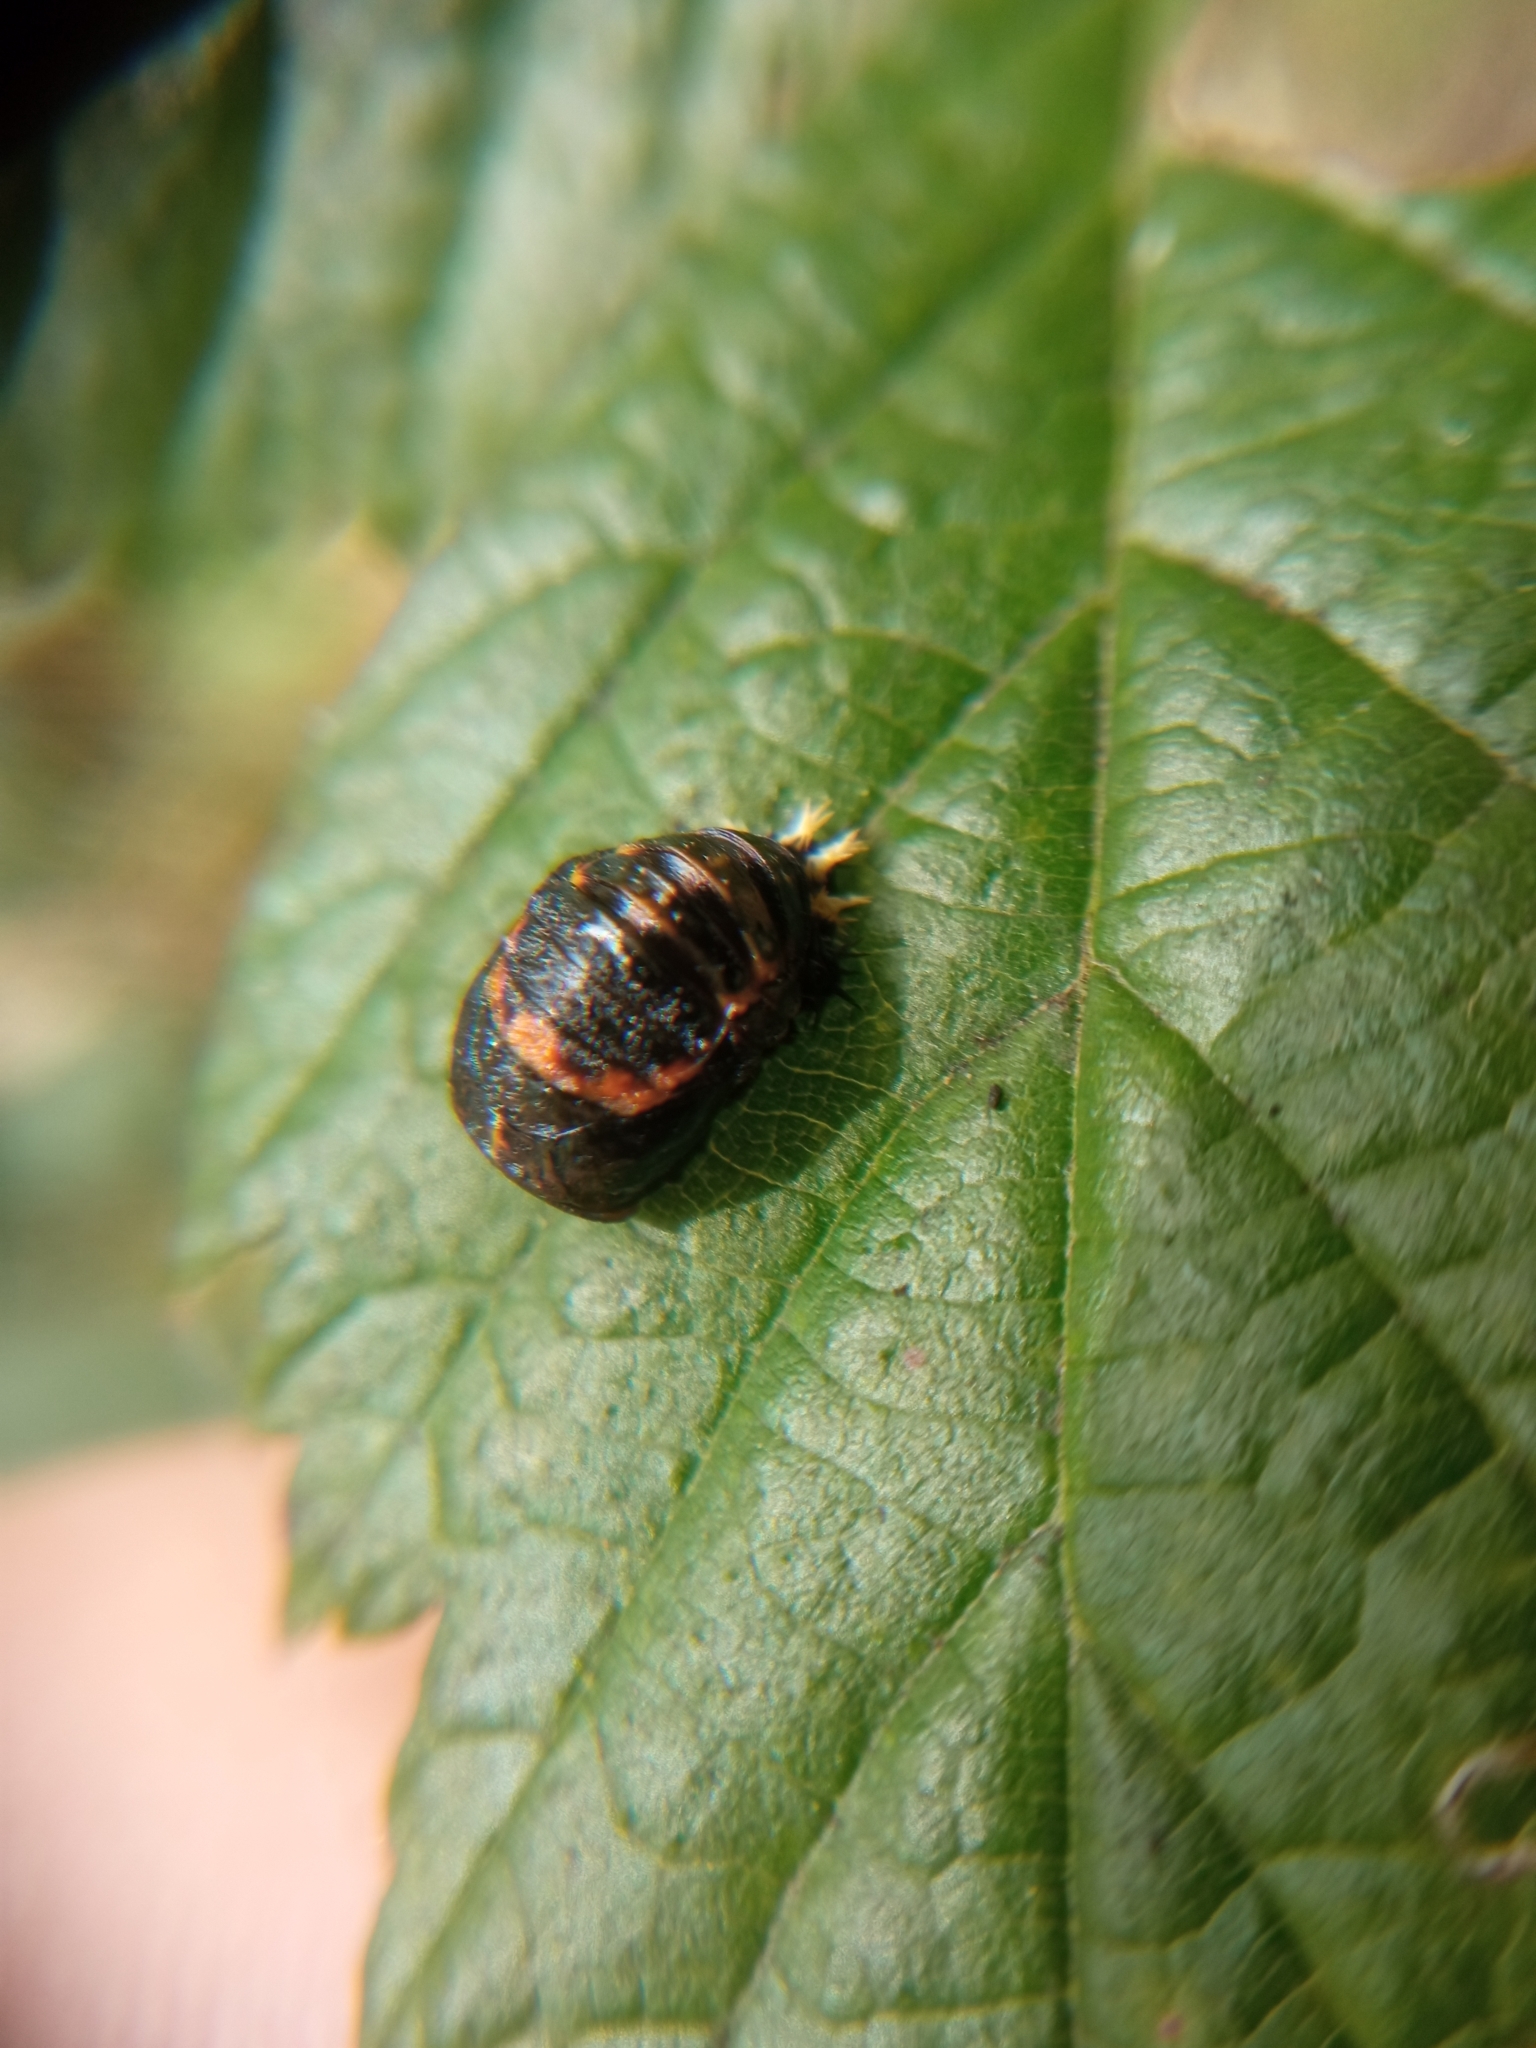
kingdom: Animalia
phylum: Arthropoda
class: Insecta
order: Coleoptera
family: Coccinellidae
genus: Harmonia
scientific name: Harmonia axyridis
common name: Harlequin ladybird
